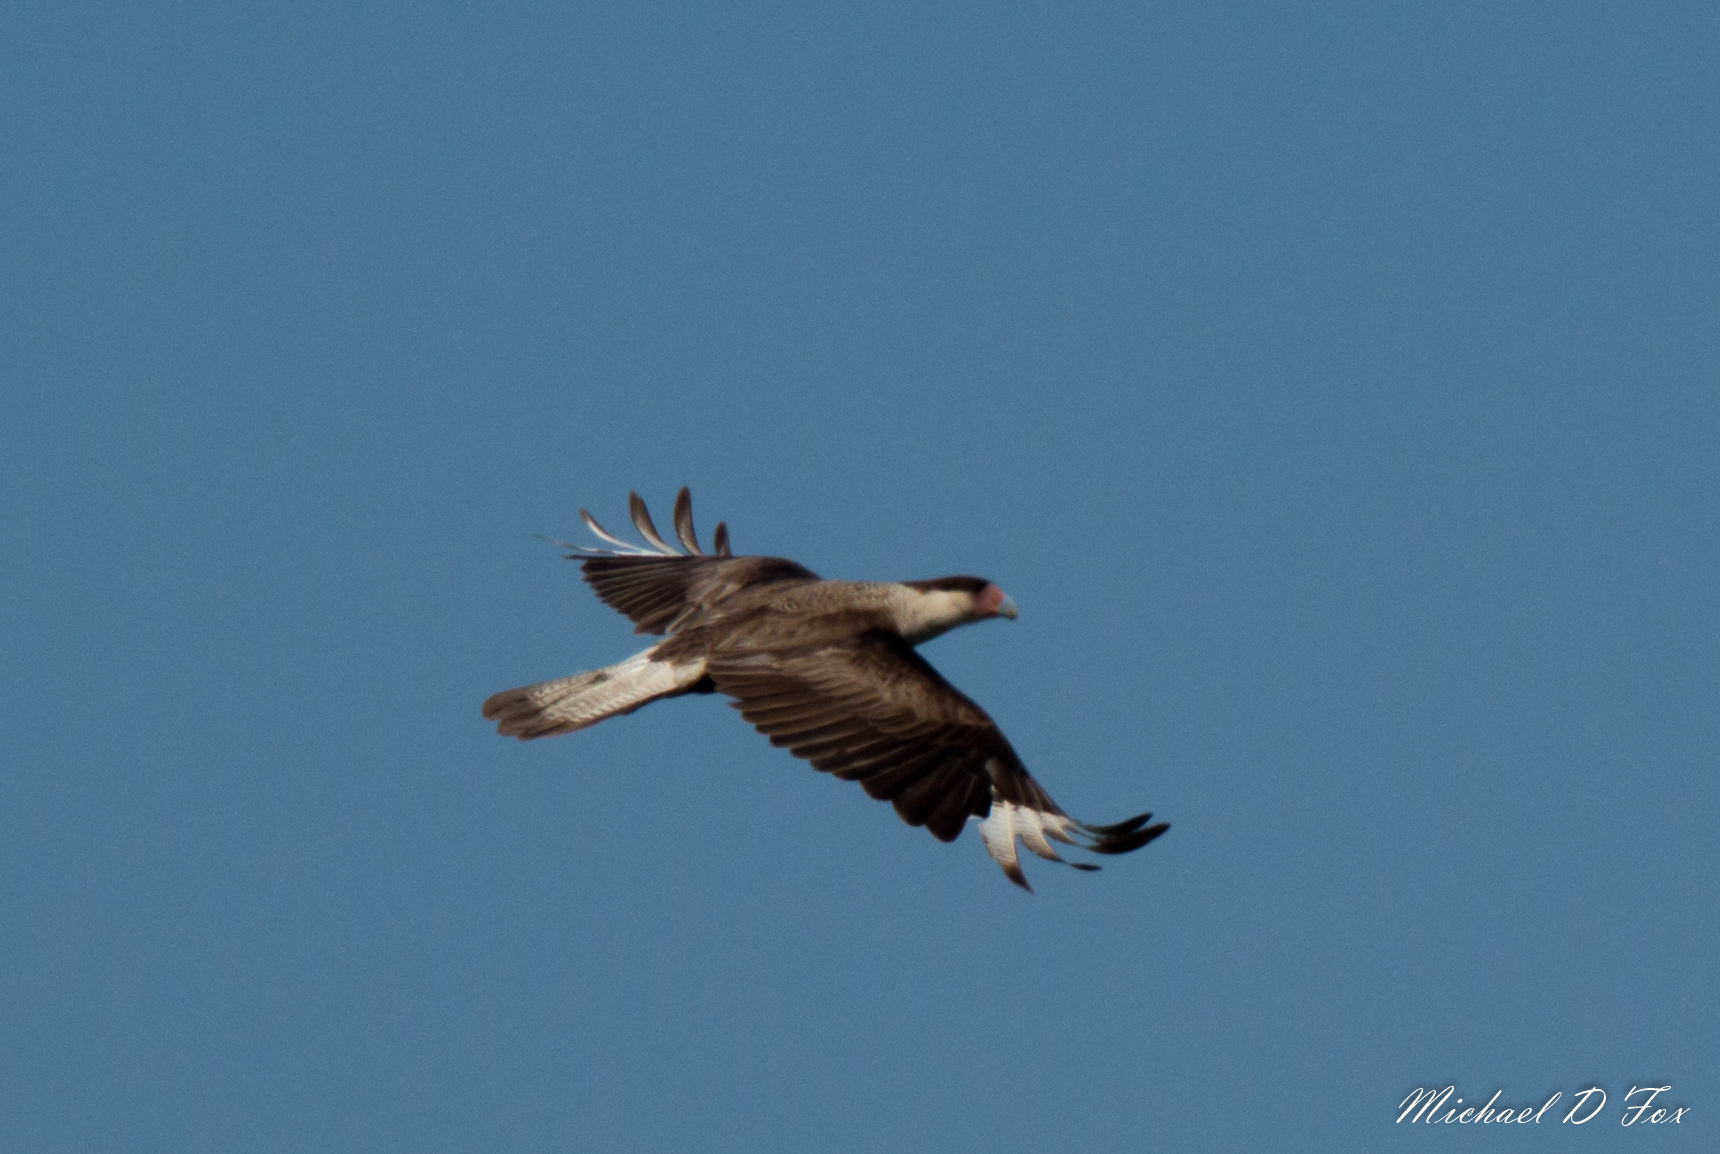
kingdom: Animalia
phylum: Chordata
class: Aves
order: Falconiformes
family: Falconidae
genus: Caracara
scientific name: Caracara plancus
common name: Southern caracara
